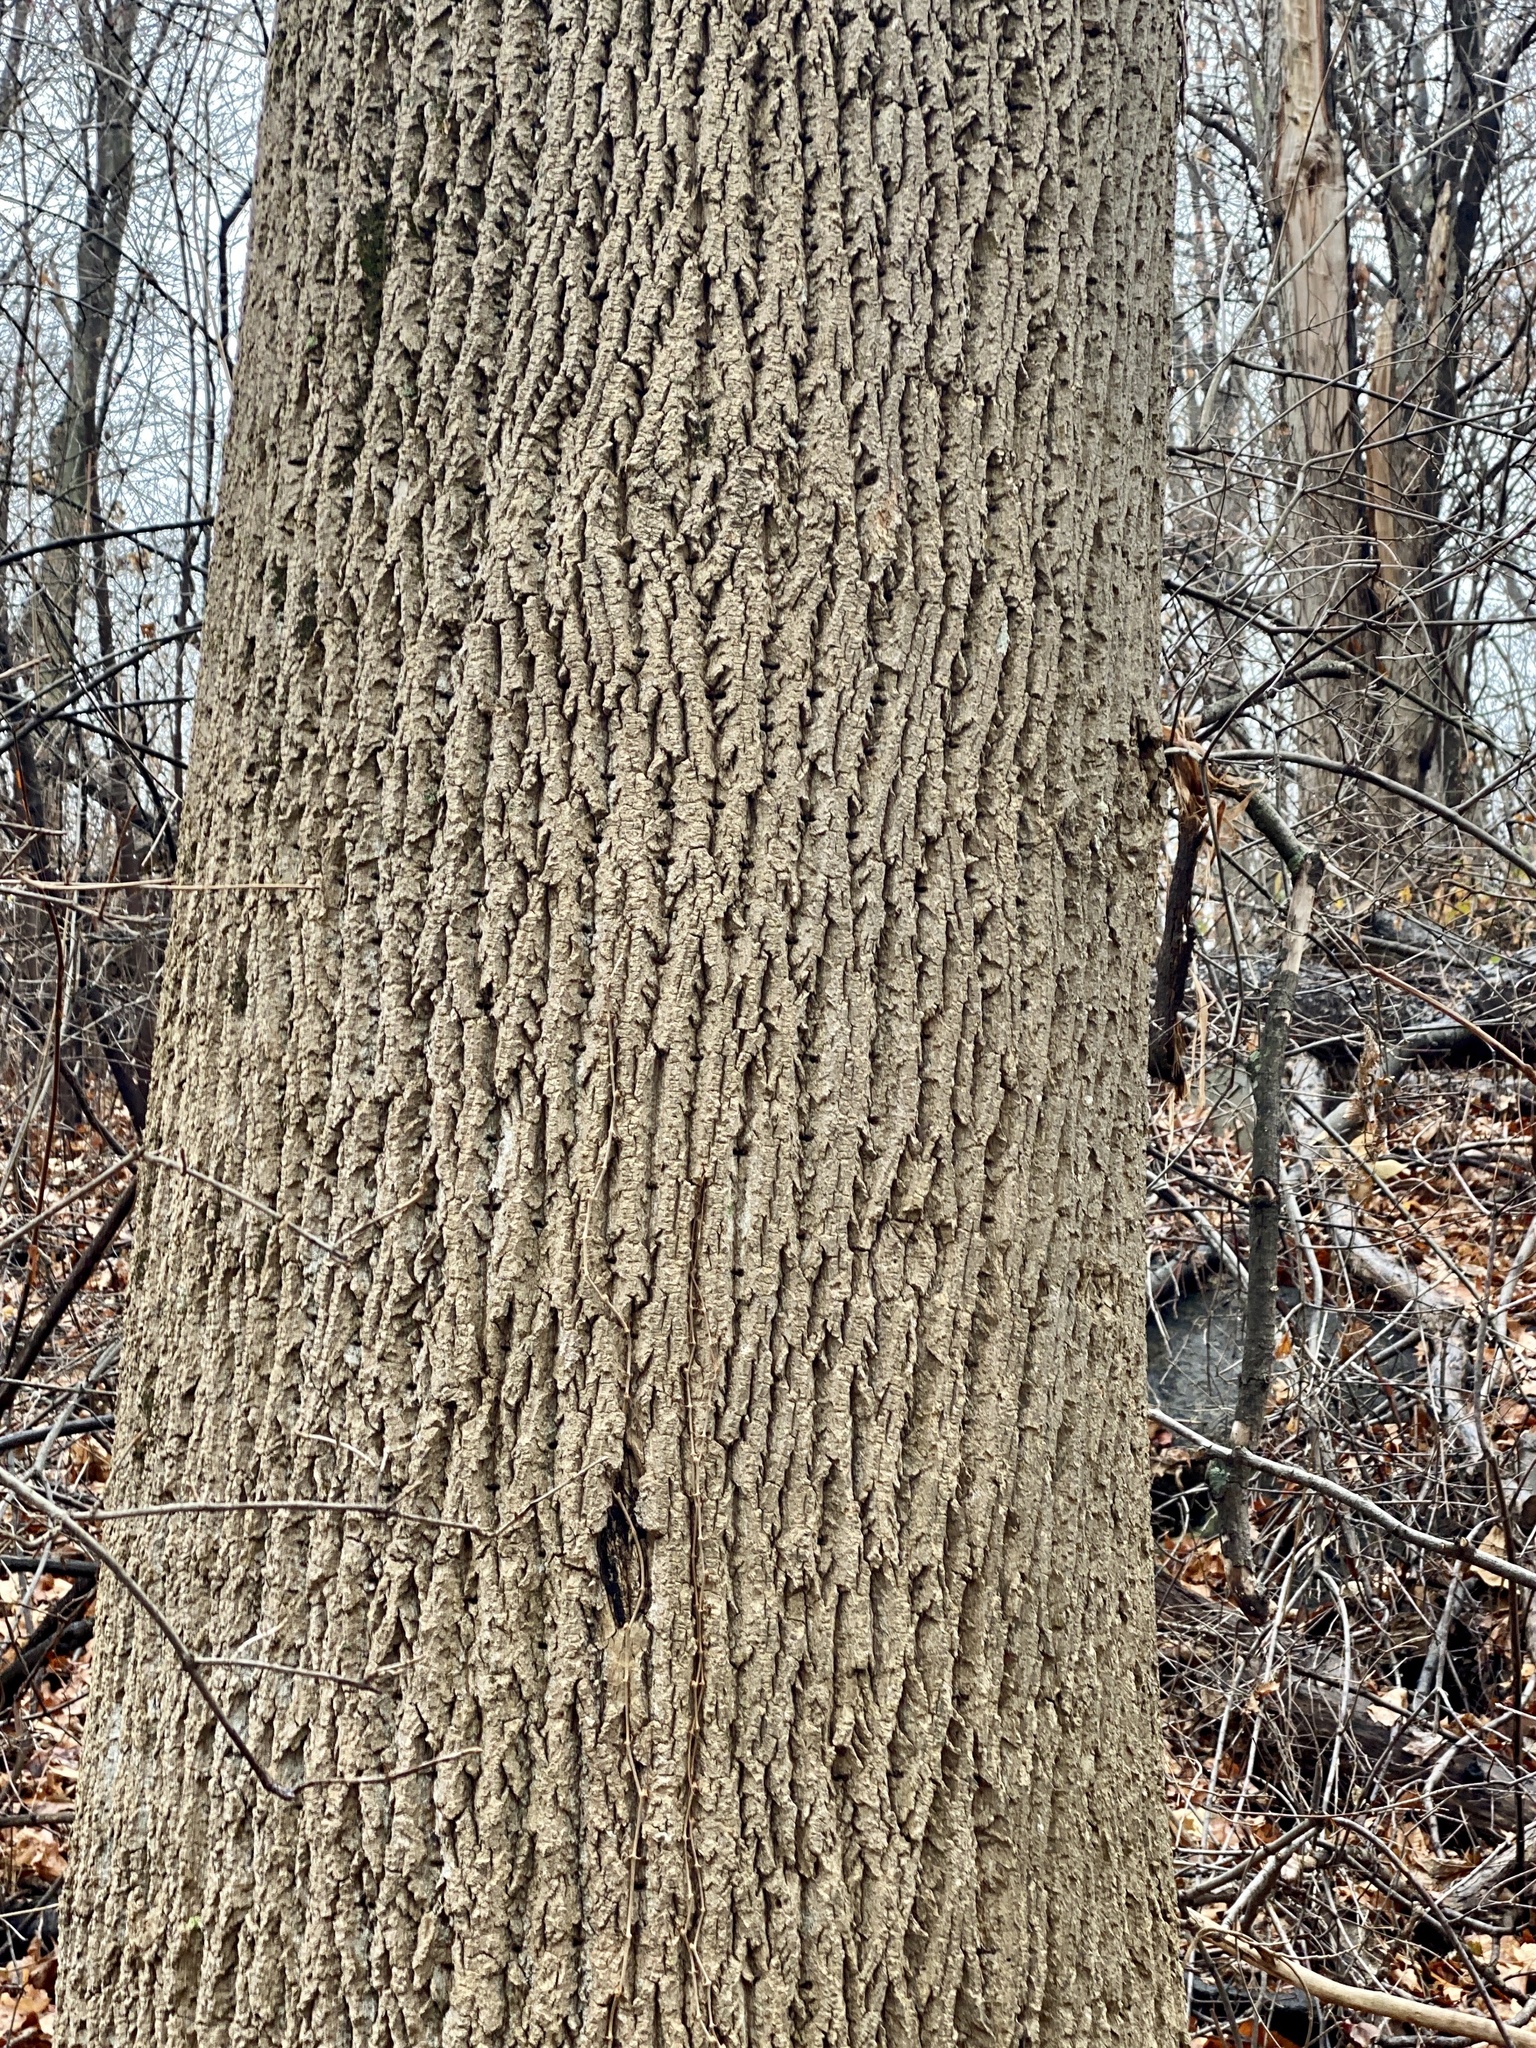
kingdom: Plantae
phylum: Tracheophyta
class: Magnoliopsida
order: Magnoliales
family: Magnoliaceae
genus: Liriodendron
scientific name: Liriodendron tulipifera
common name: Tulip tree
